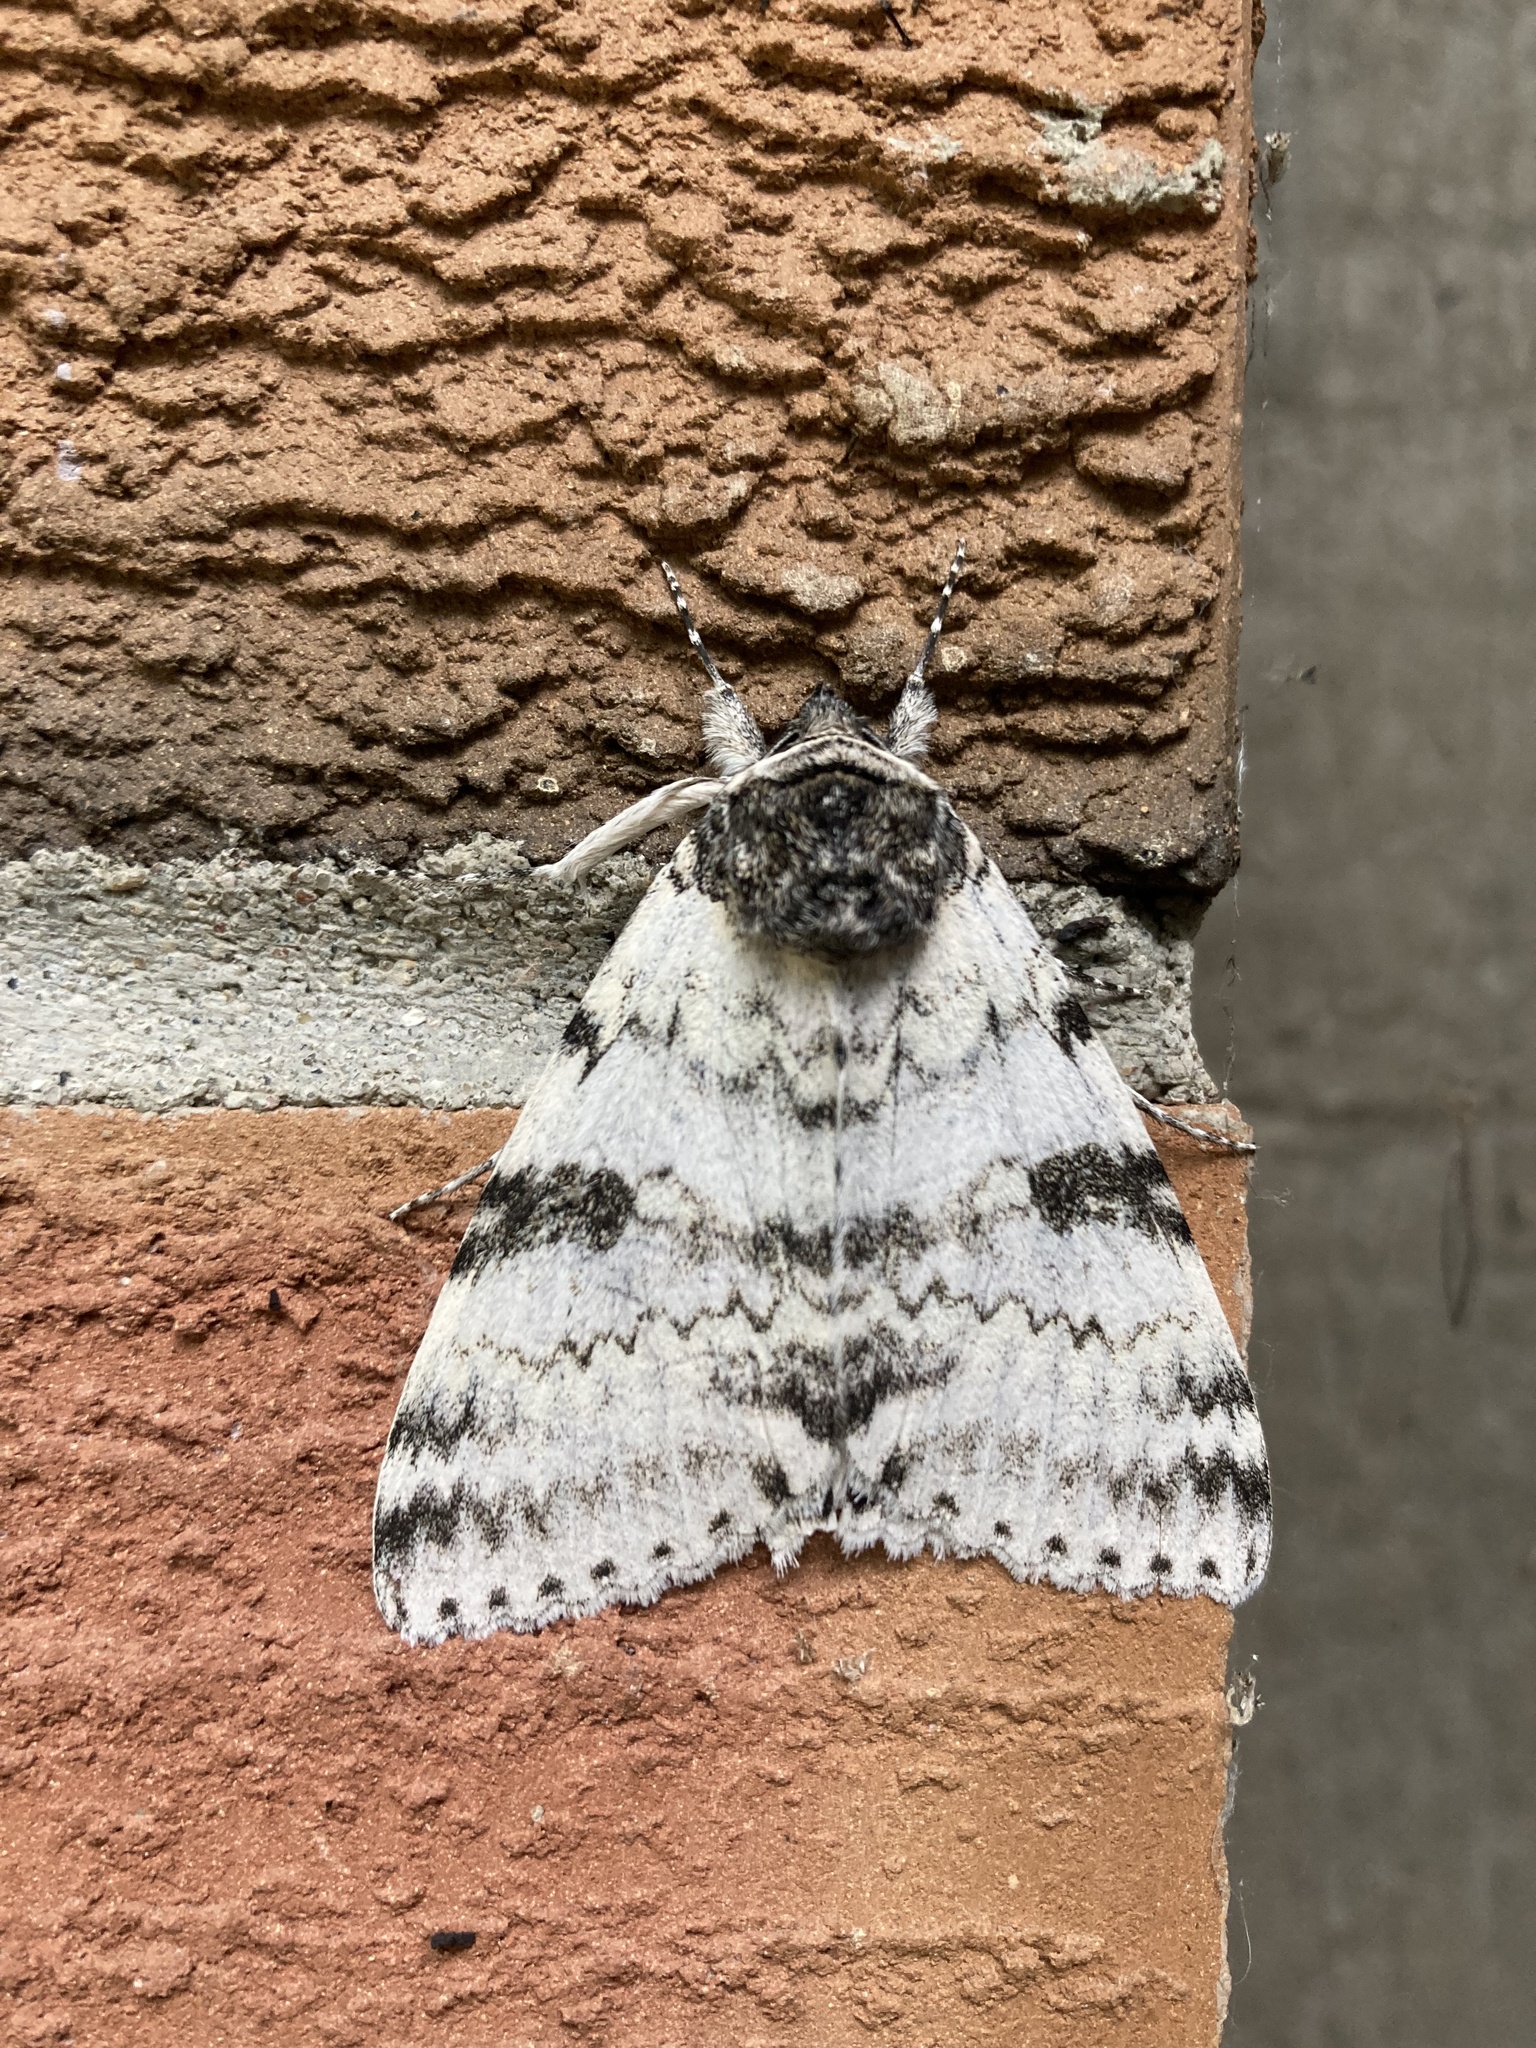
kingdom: Animalia
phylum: Arthropoda
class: Insecta
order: Lepidoptera
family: Erebidae
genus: Catocala
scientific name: Catocala relicta
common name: White underwing
